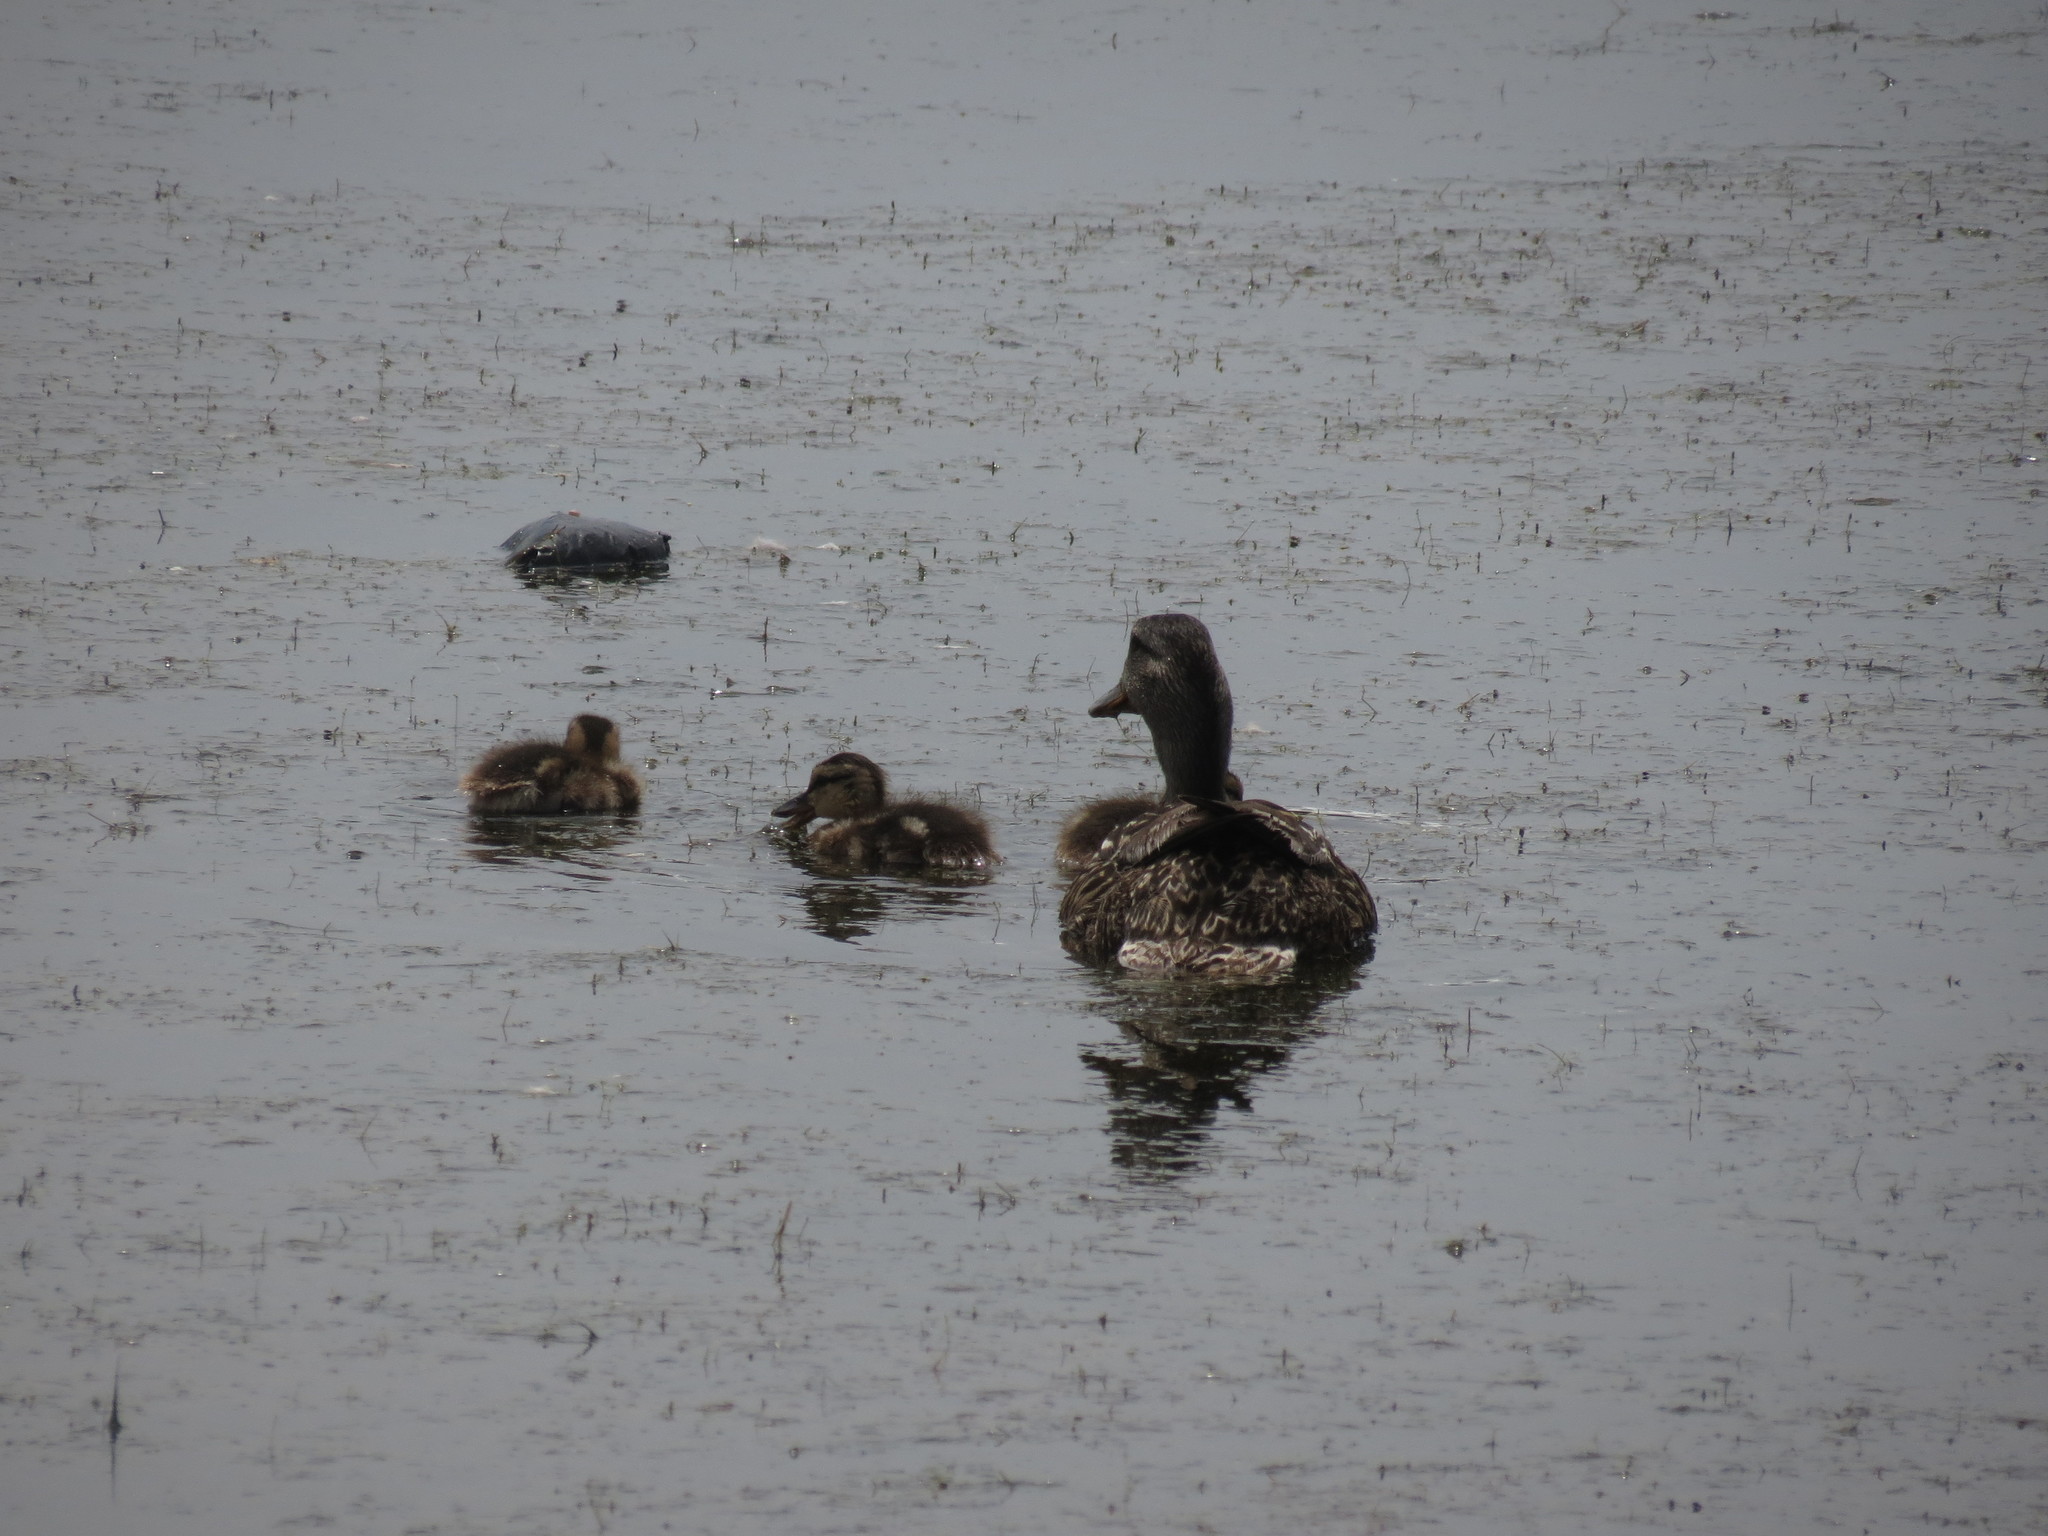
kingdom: Animalia
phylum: Chordata
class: Aves
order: Anseriformes
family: Anatidae
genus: Anas
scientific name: Anas platyrhynchos
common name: Mallard
